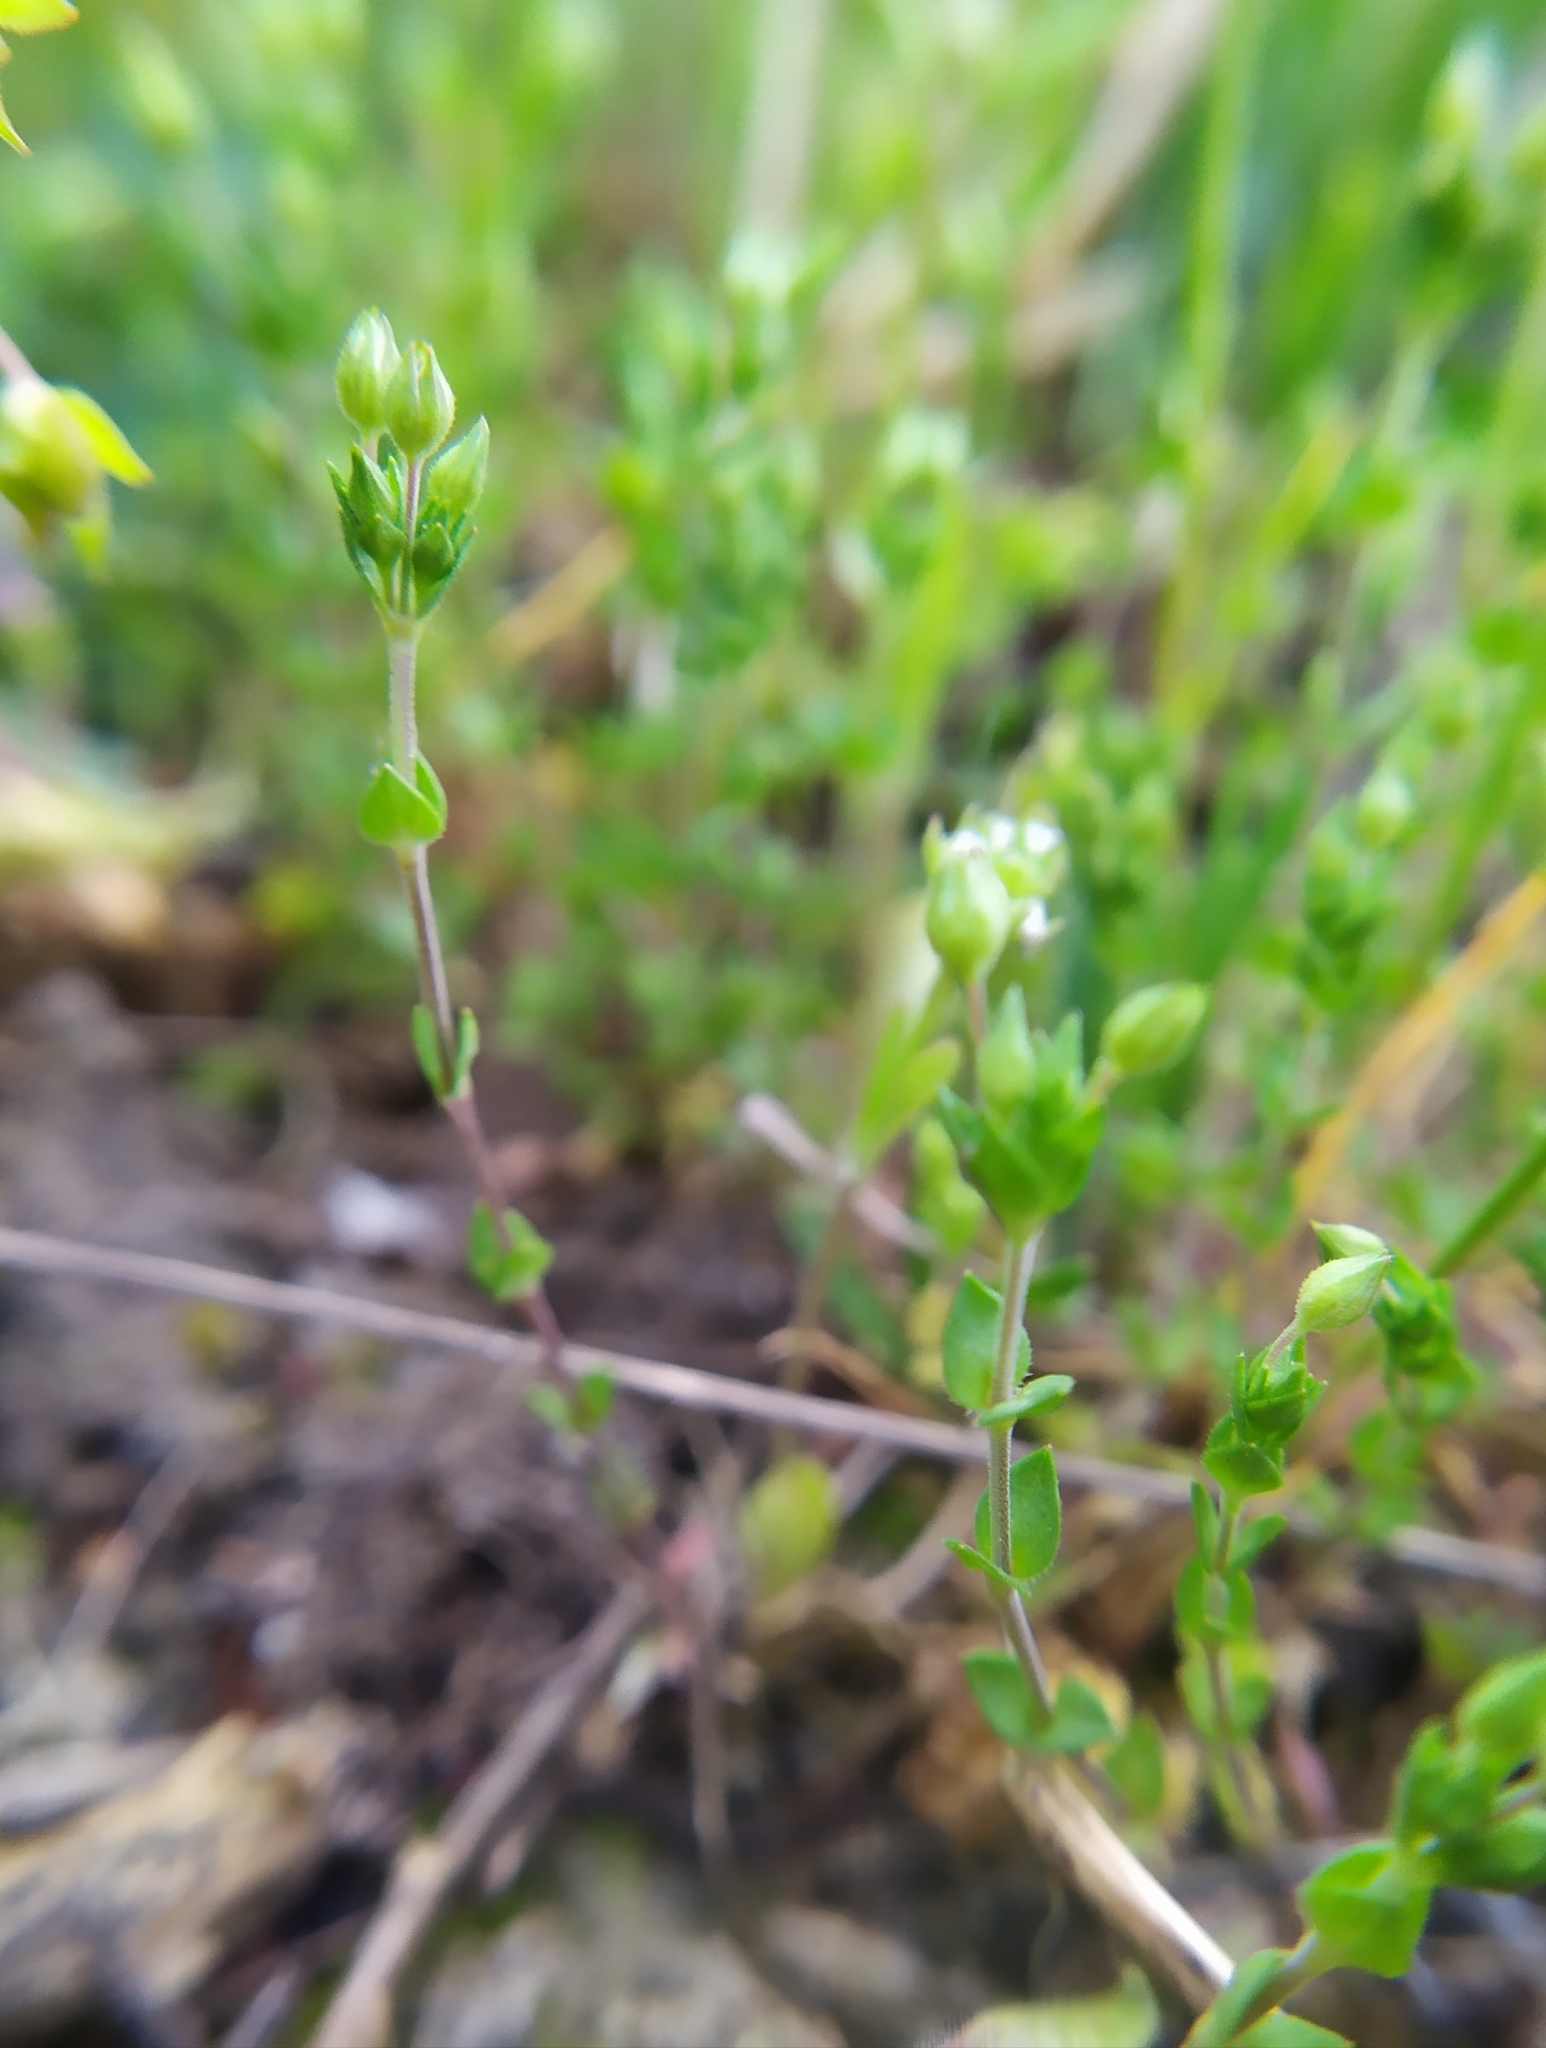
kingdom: Plantae
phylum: Tracheophyta
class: Magnoliopsida
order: Caryophyllales
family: Caryophyllaceae
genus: Arenaria
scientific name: Arenaria serpyllifolia
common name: Thyme-leaved sandwort
